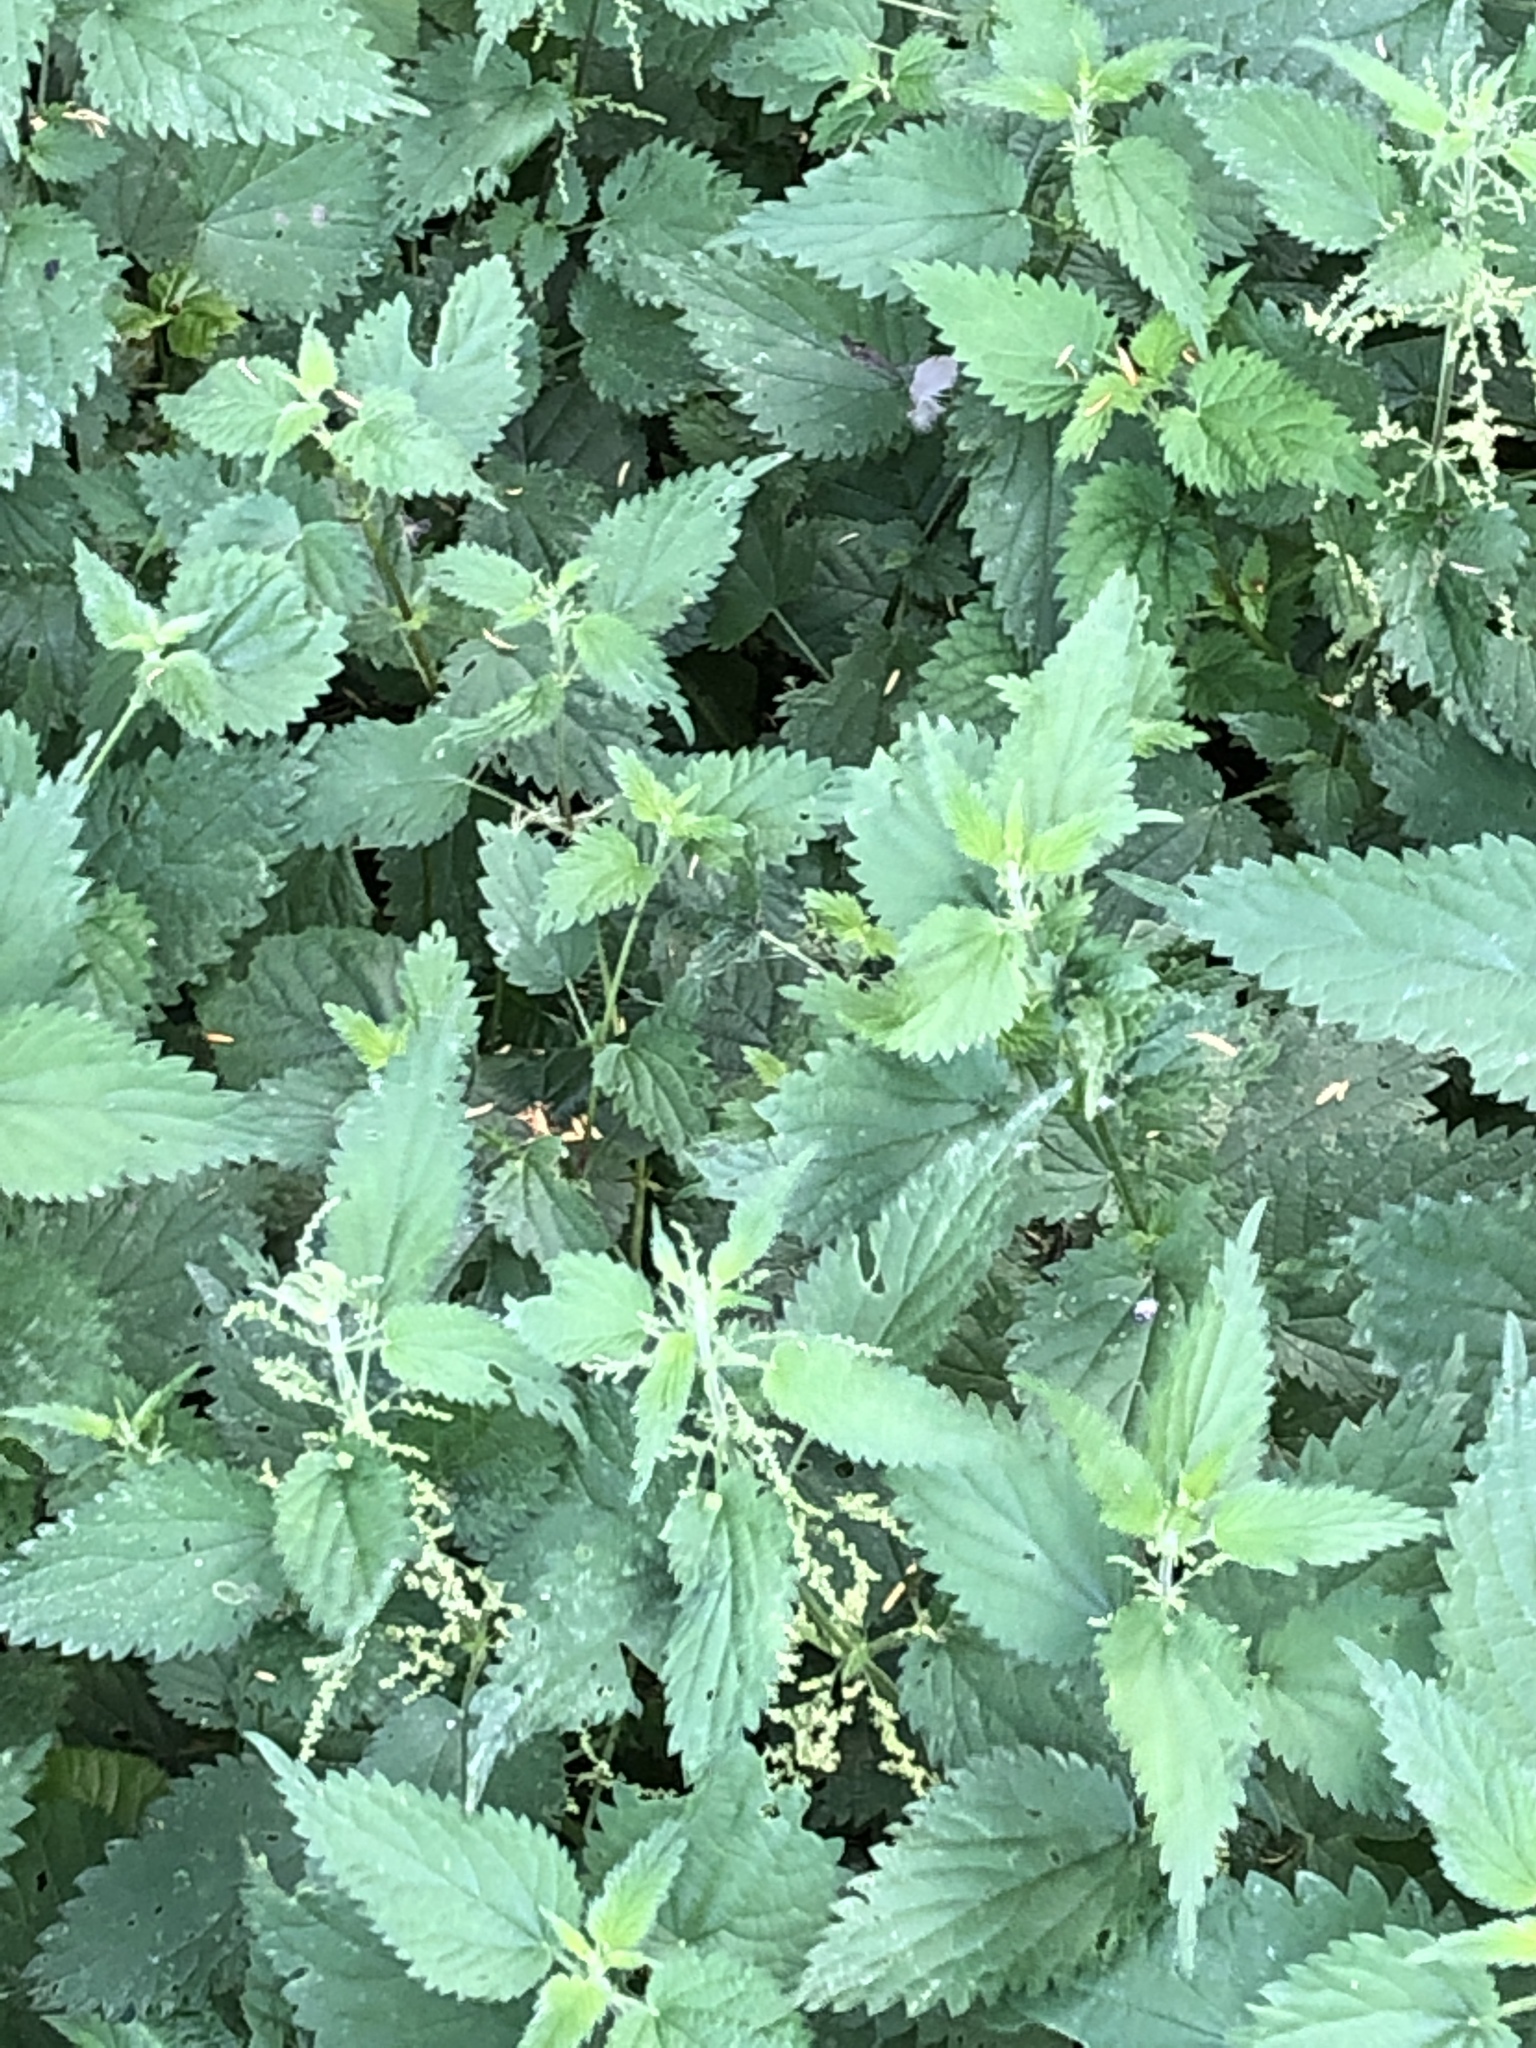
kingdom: Plantae
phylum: Tracheophyta
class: Magnoliopsida
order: Rosales
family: Urticaceae
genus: Urtica
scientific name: Urtica dioica
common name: Common nettle
